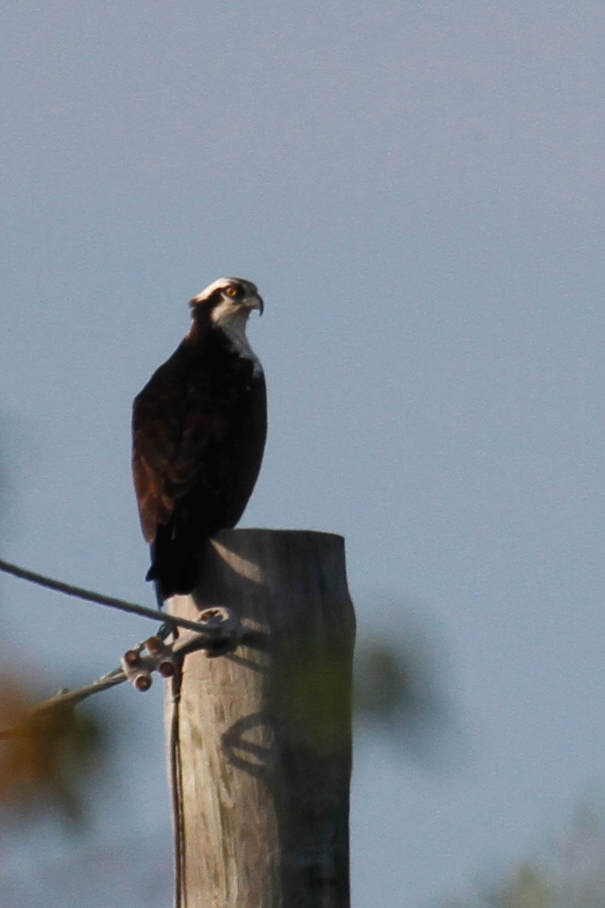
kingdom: Animalia
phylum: Chordata
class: Aves
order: Accipitriformes
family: Pandionidae
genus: Pandion
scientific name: Pandion haliaetus
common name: Osprey
